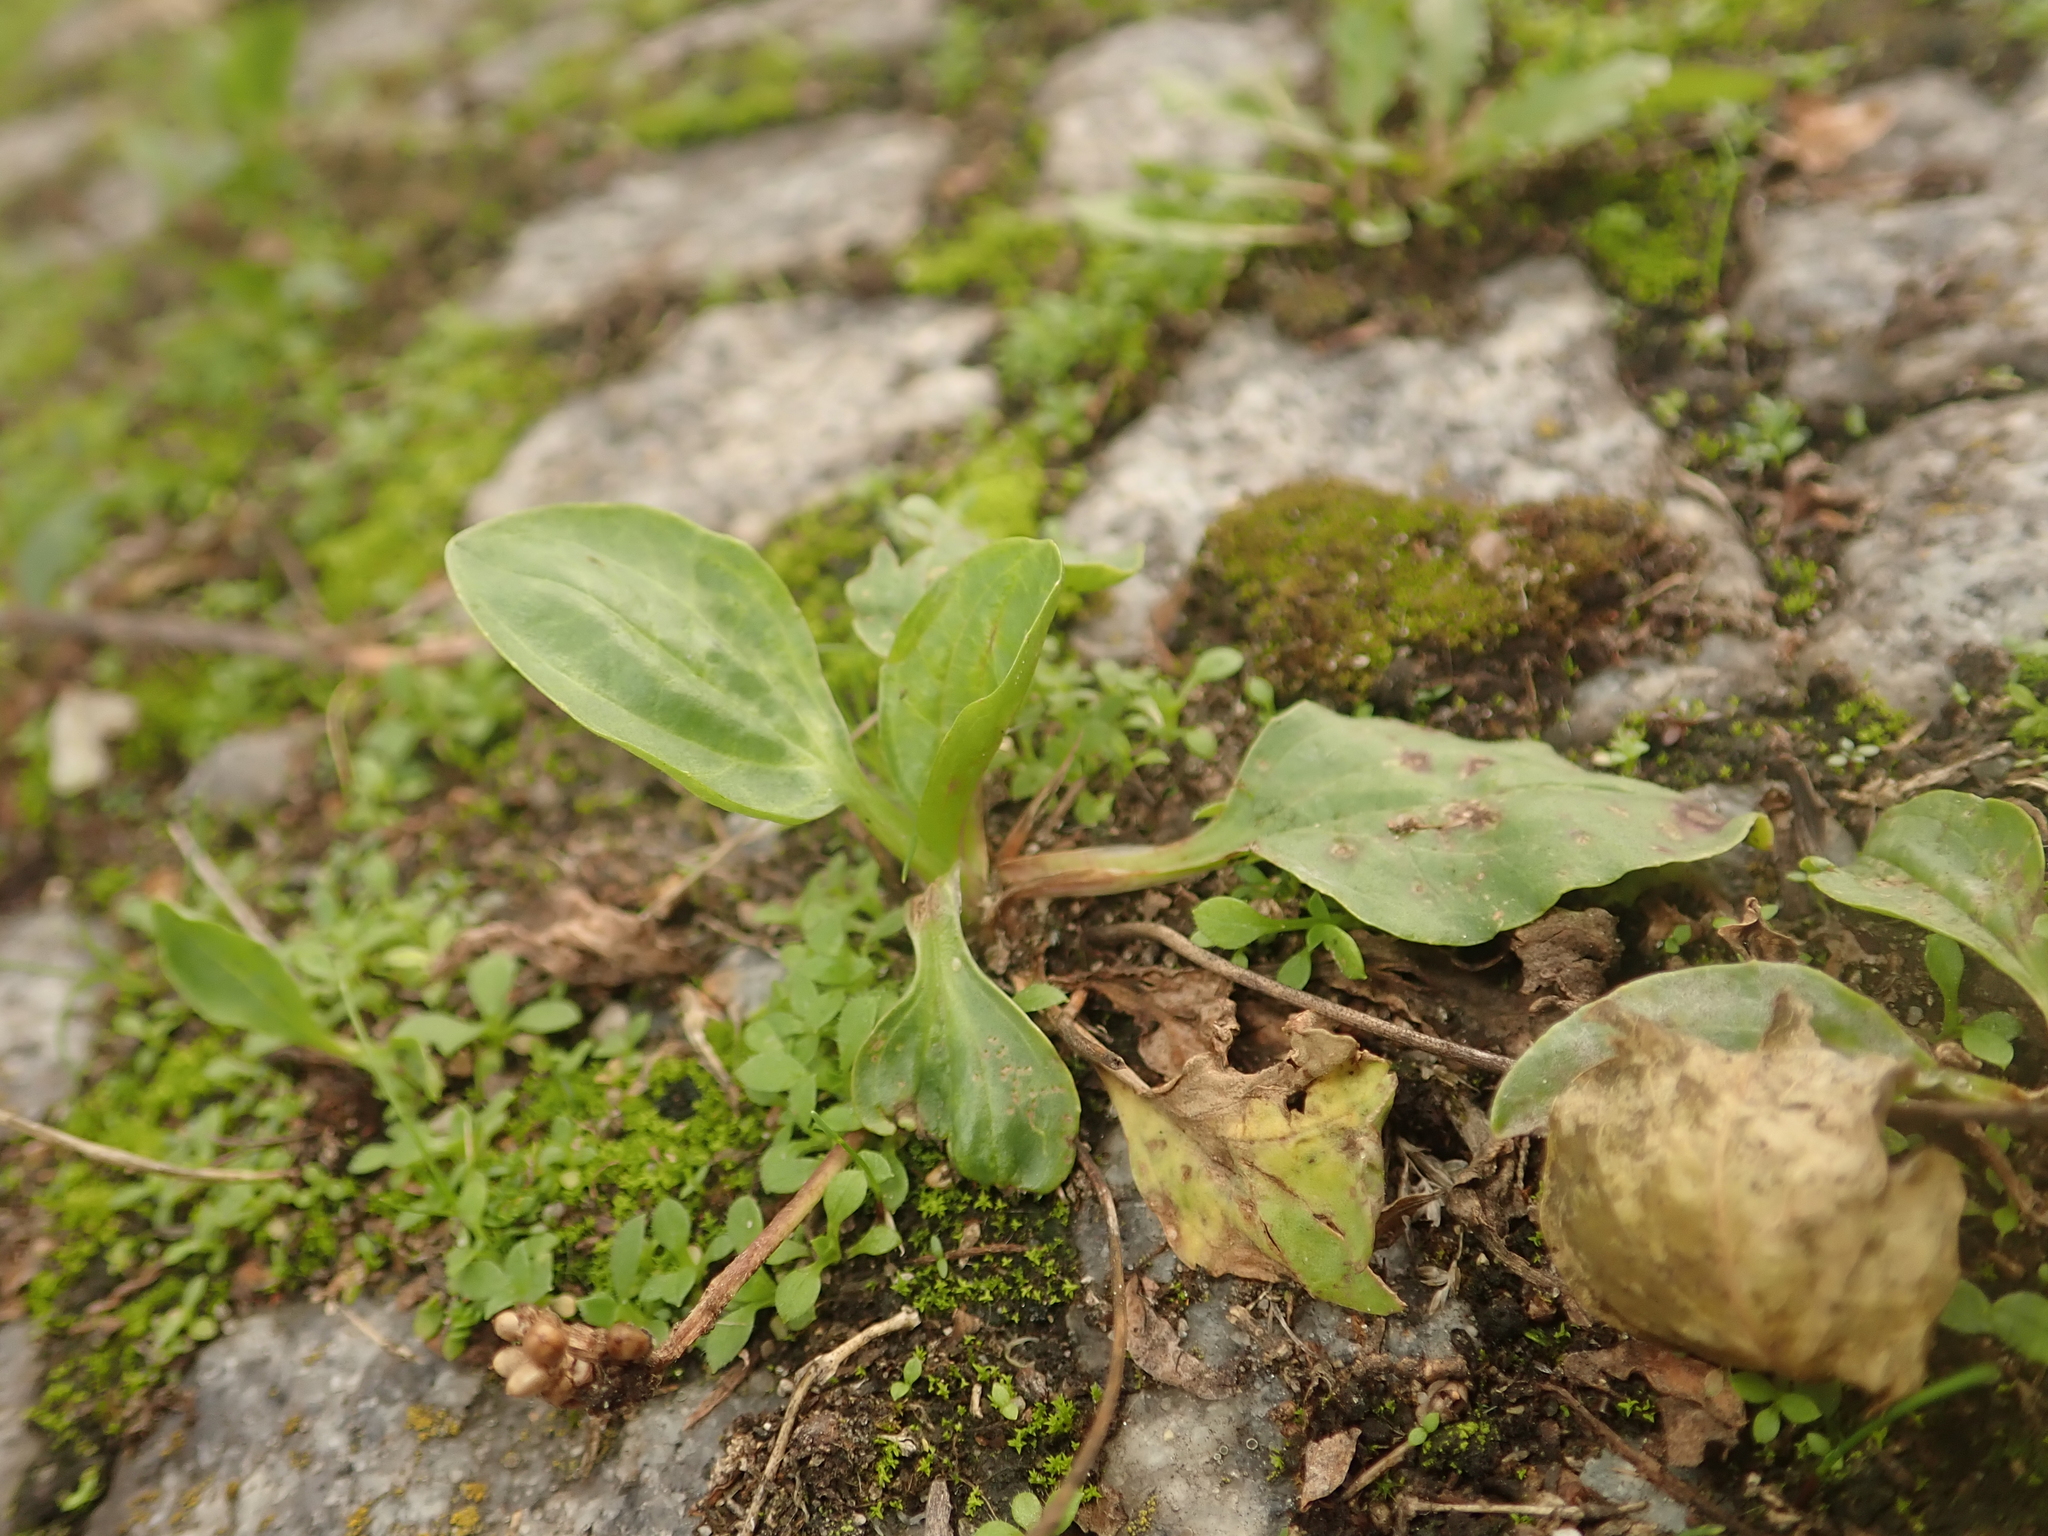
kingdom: Plantae
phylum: Tracheophyta
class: Magnoliopsida
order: Lamiales
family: Plantaginaceae
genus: Plantago
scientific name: Plantago major
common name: Common plantain
